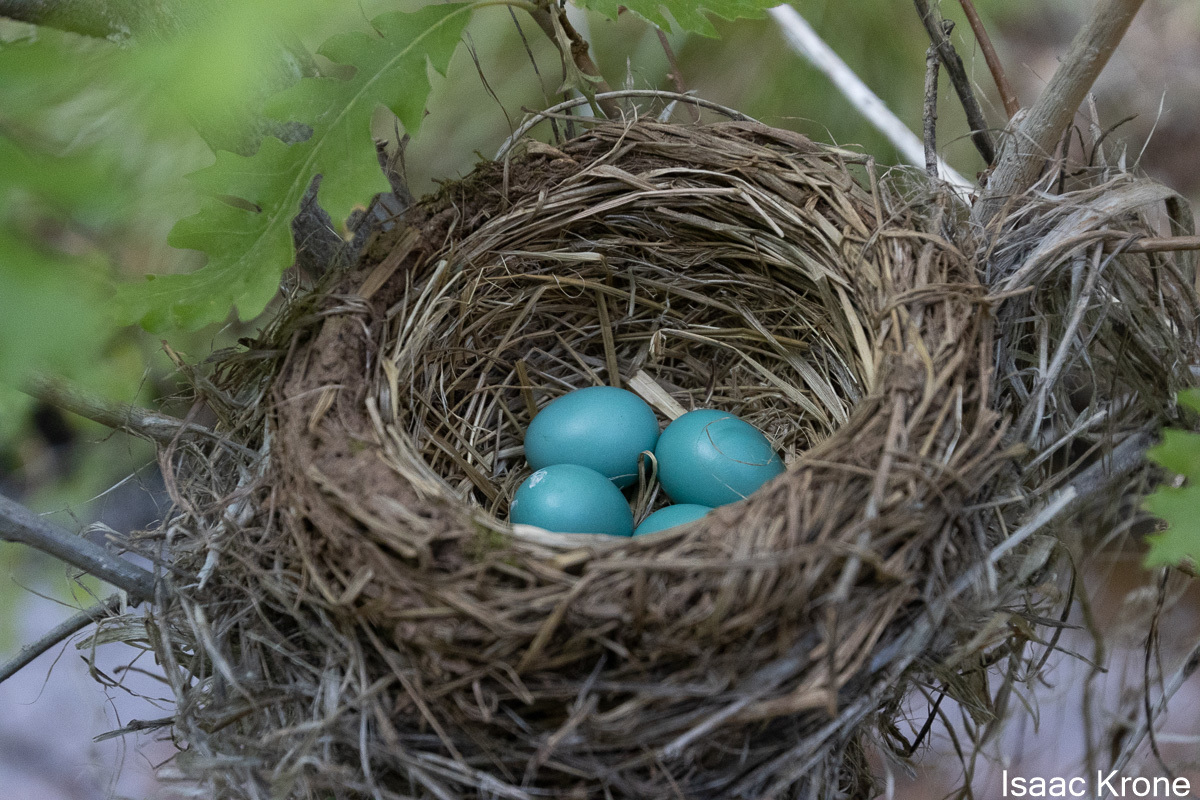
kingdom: Animalia
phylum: Chordata
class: Aves
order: Passeriformes
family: Turdidae
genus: Turdus
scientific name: Turdus migratorius
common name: American robin
